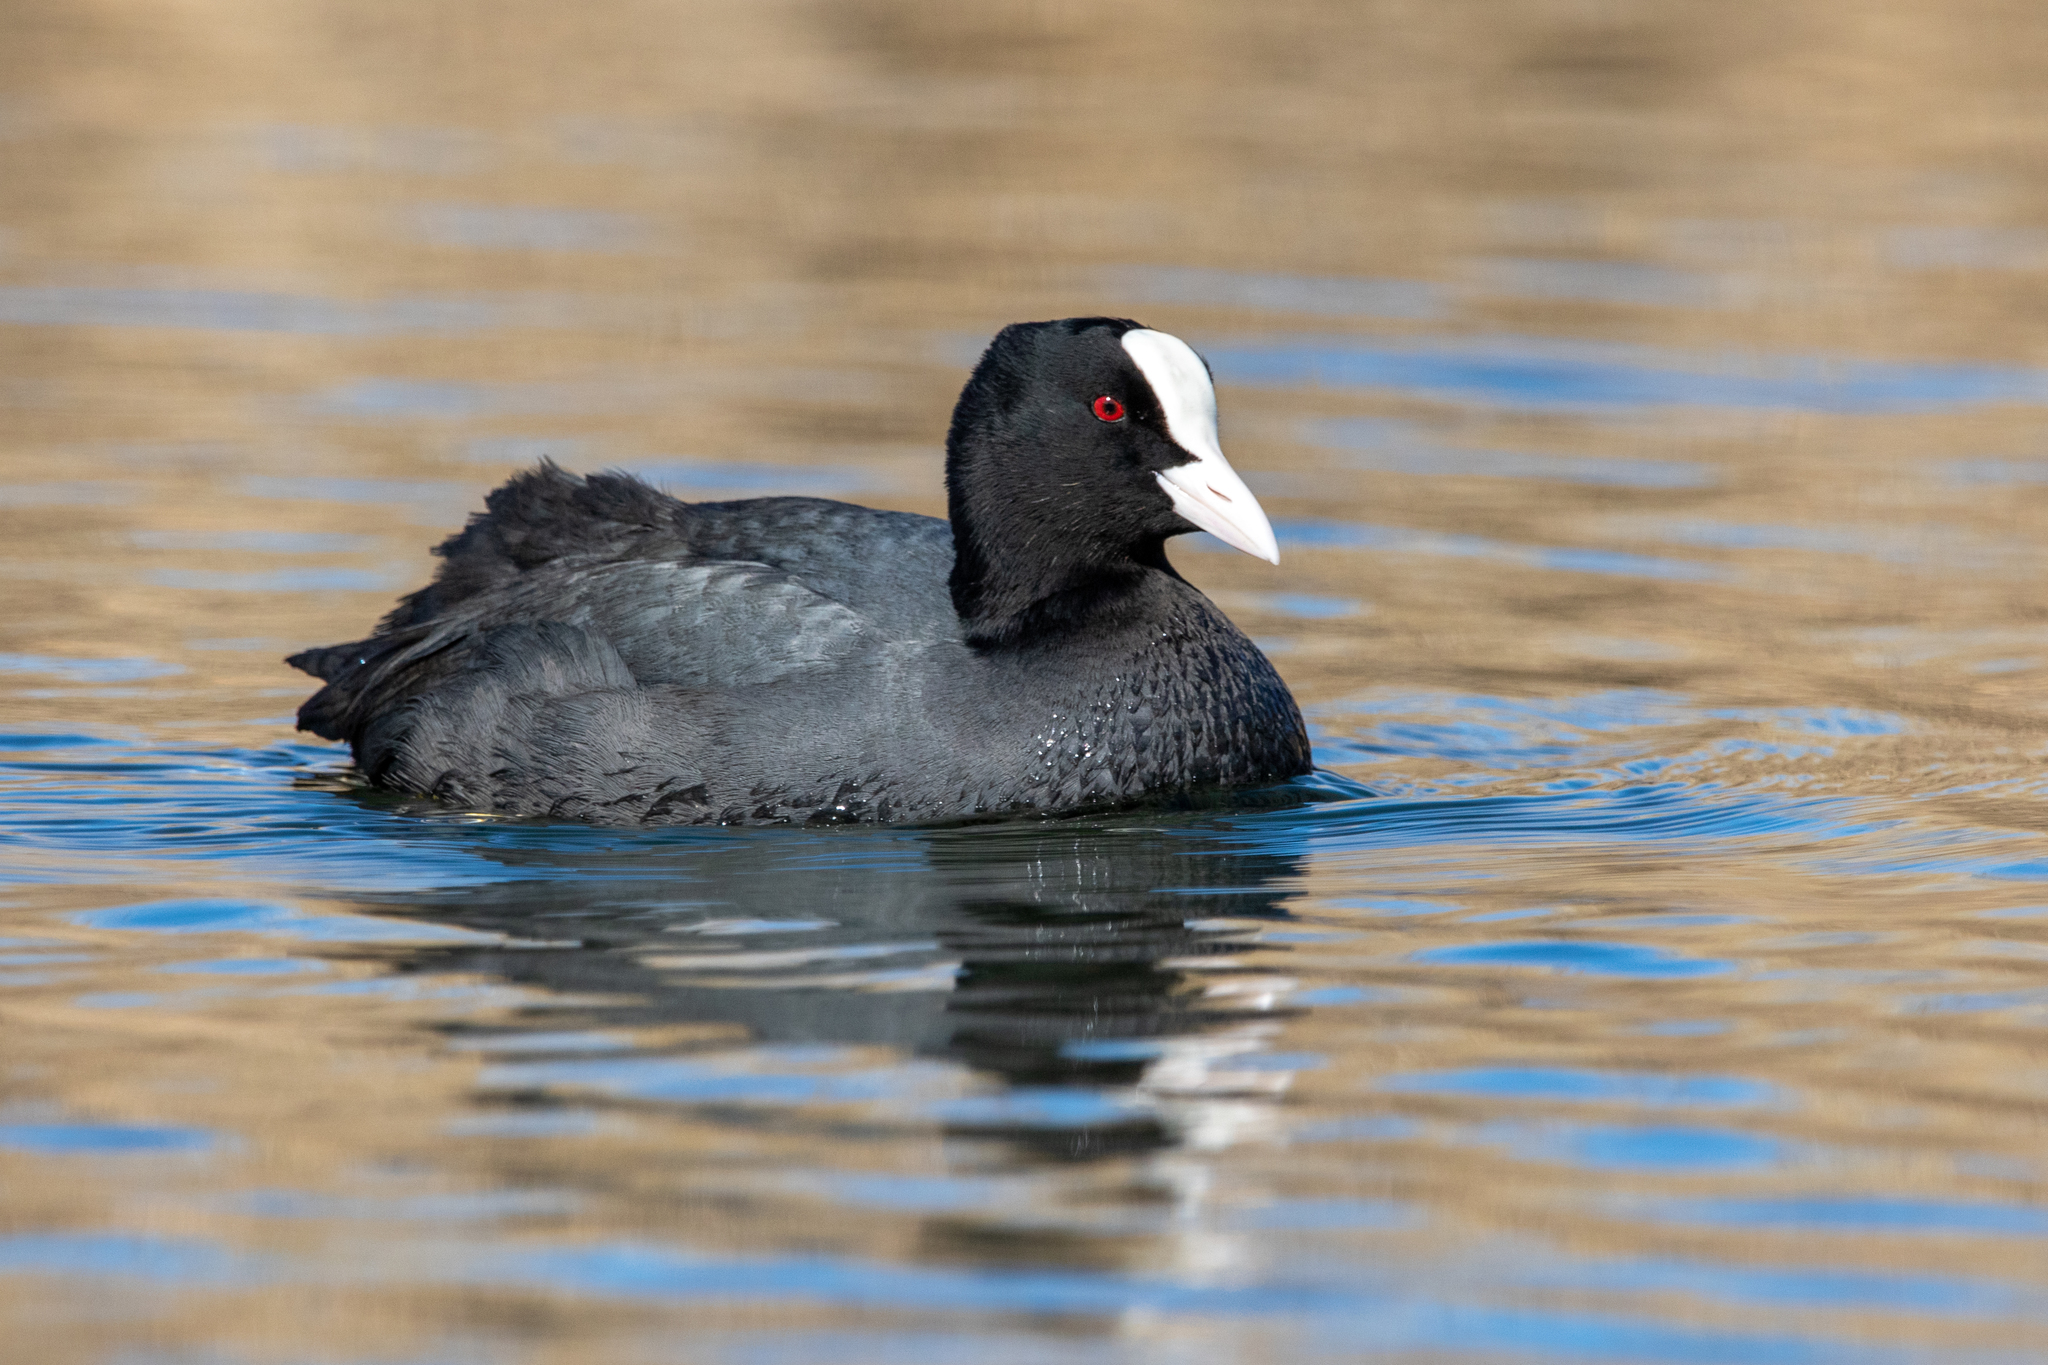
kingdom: Animalia
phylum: Chordata
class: Aves
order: Gruiformes
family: Rallidae
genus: Fulica
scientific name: Fulica atra
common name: Eurasian coot
